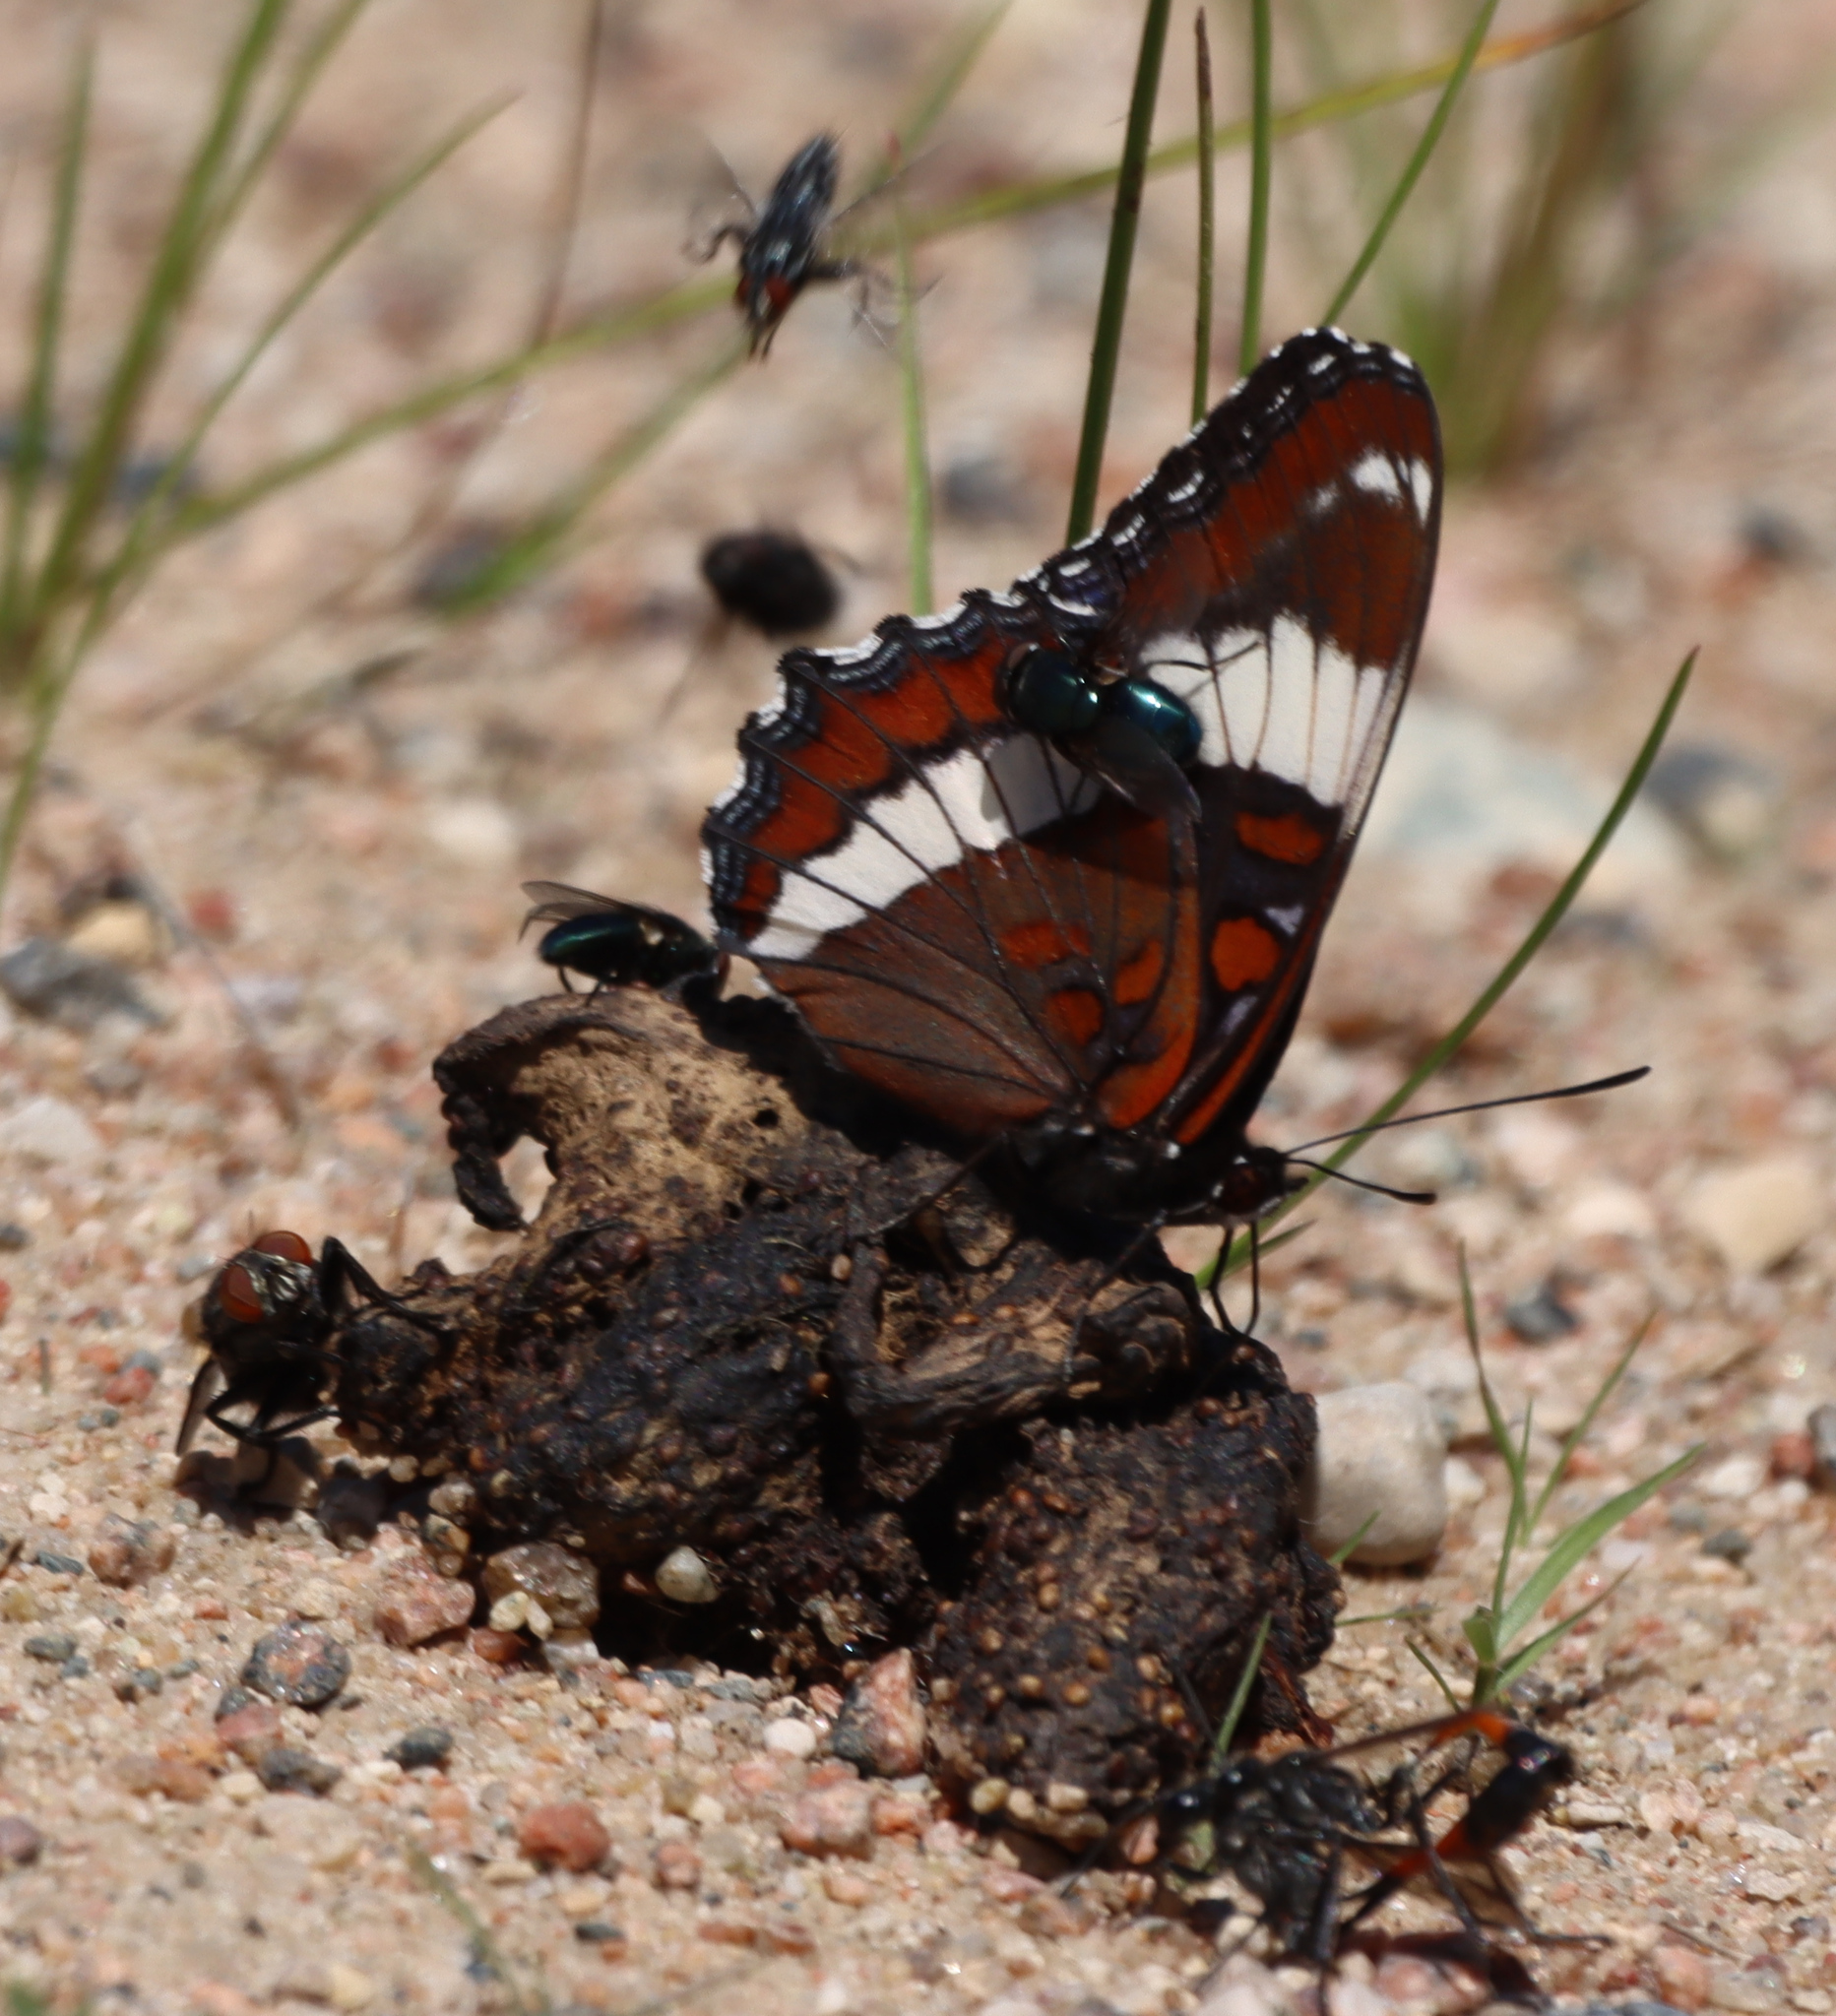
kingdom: Animalia
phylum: Arthropoda
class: Insecta
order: Lepidoptera
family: Nymphalidae
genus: Limenitis
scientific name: Limenitis arthemis
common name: Red-spotted admiral
